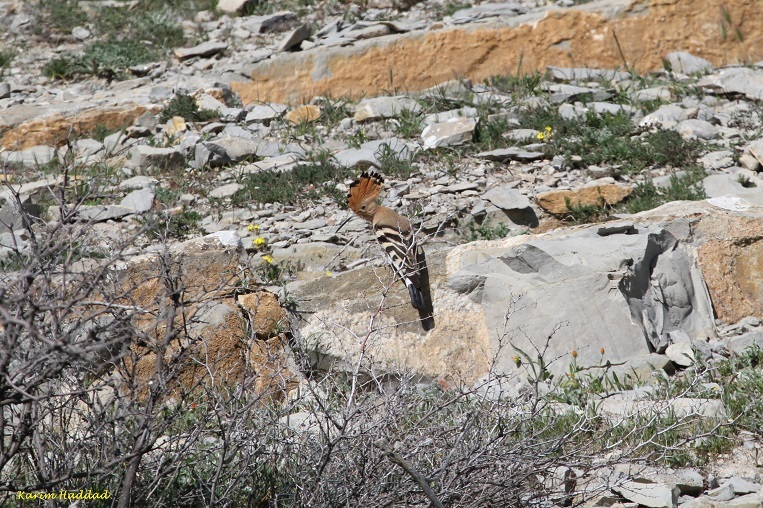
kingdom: Animalia
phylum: Chordata
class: Aves
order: Bucerotiformes
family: Upupidae
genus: Upupa
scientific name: Upupa epops
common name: Eurasian hoopoe
